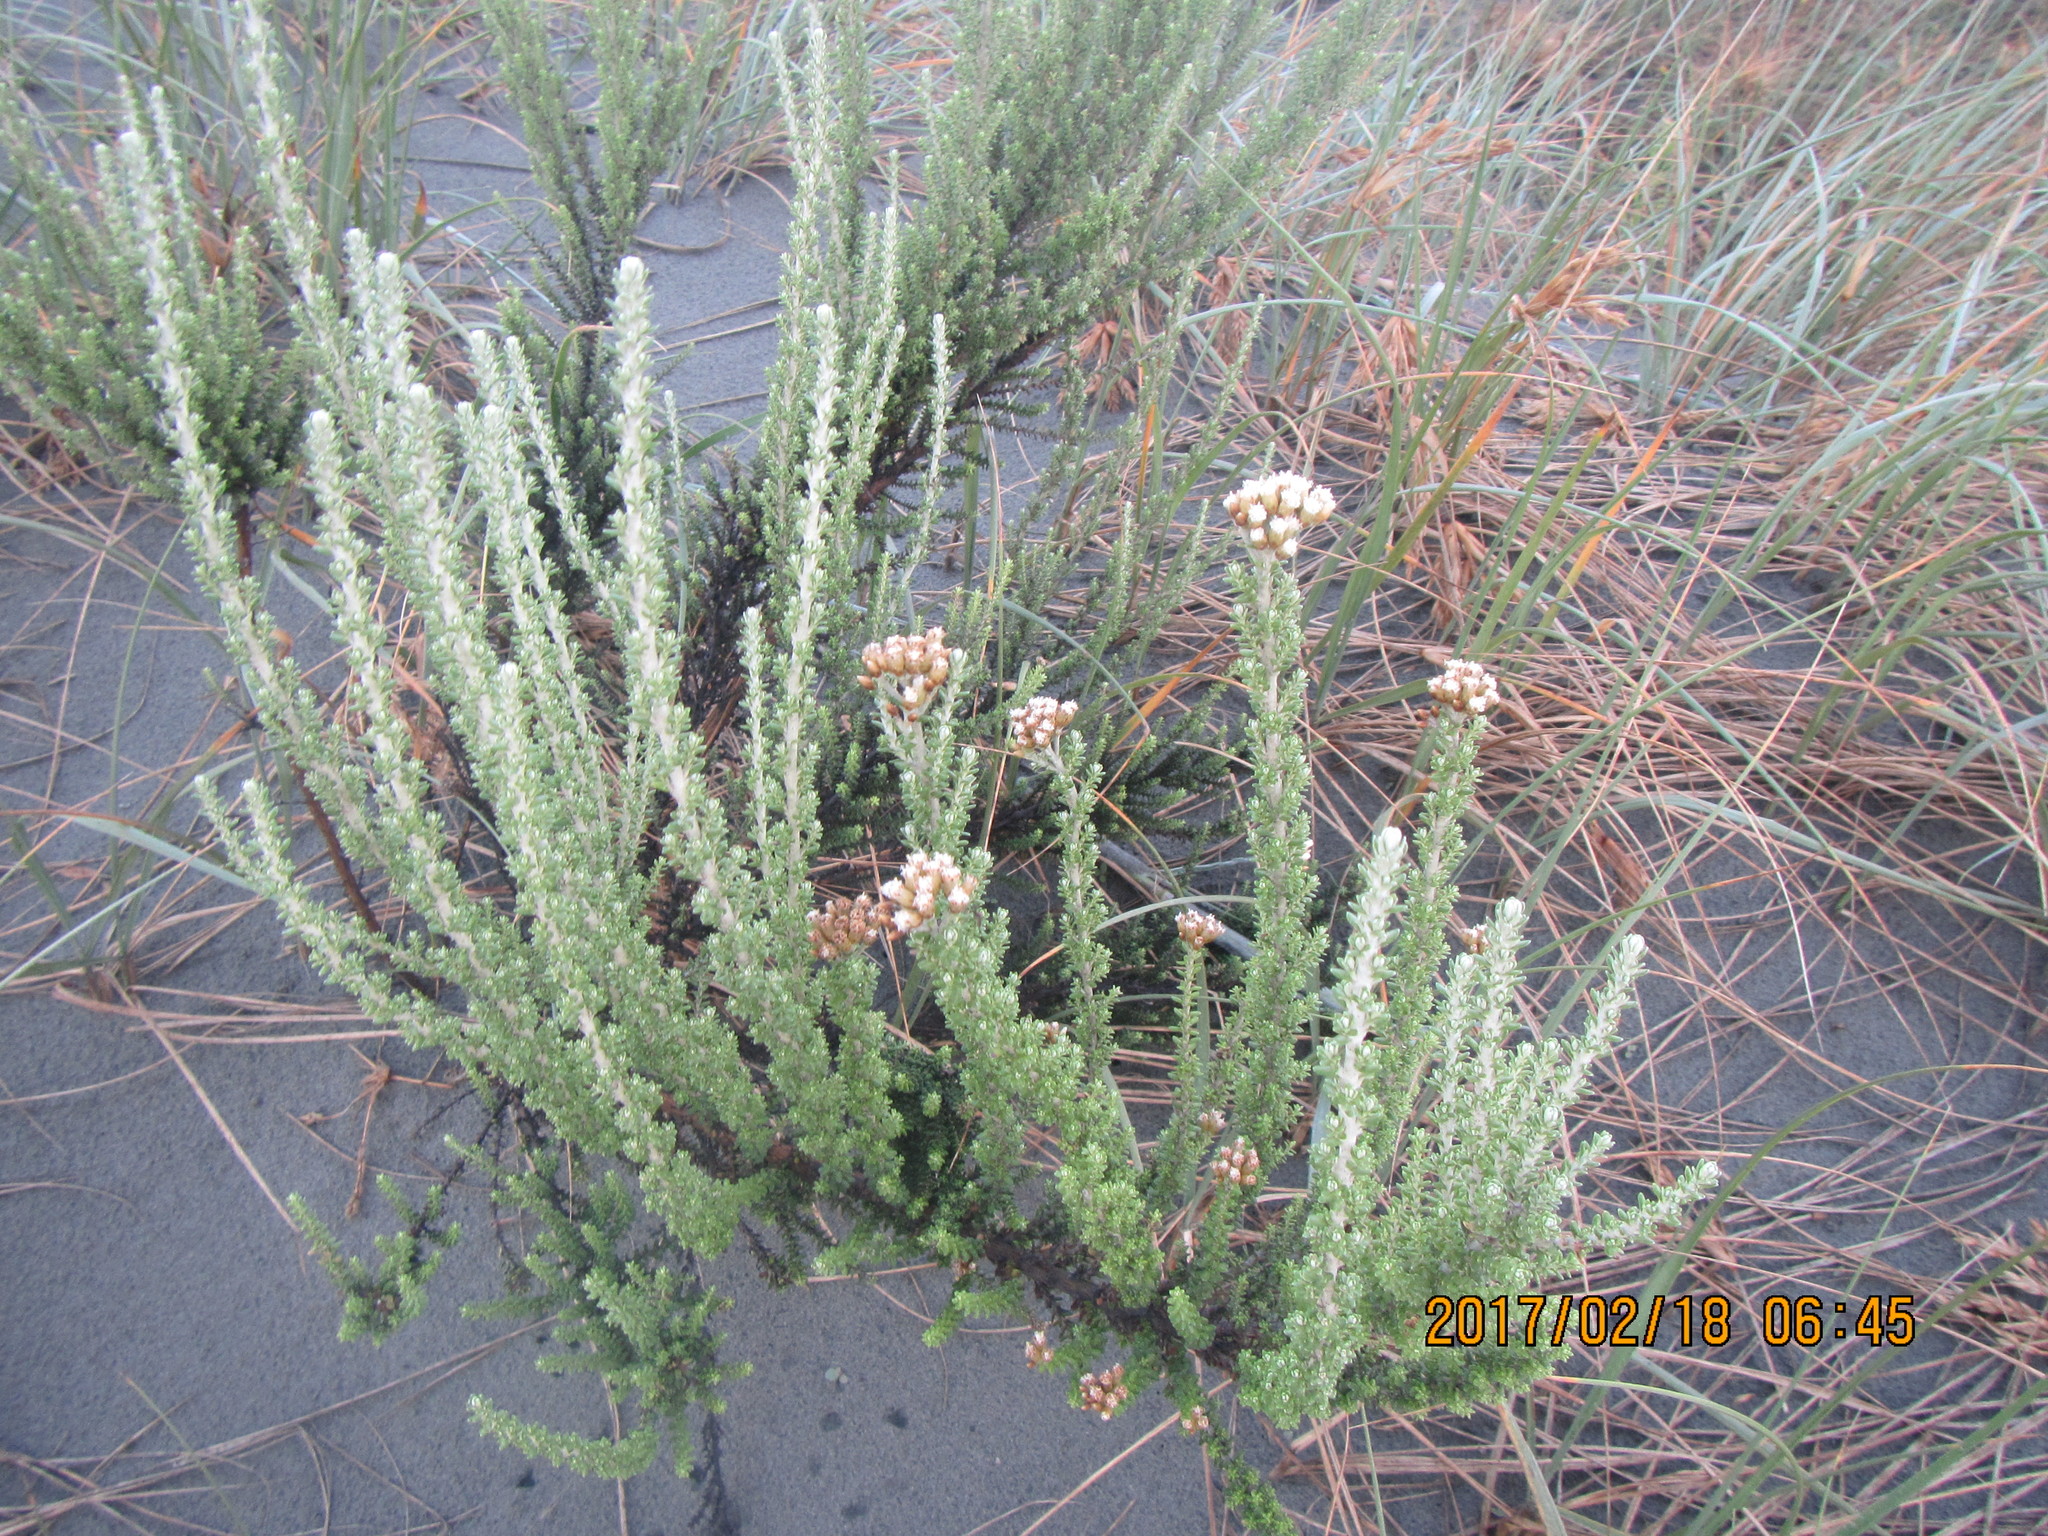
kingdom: Plantae
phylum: Tracheophyta
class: Magnoliopsida
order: Asterales
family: Asteraceae
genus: Ozothamnus
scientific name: Ozothamnus leptophyllus
